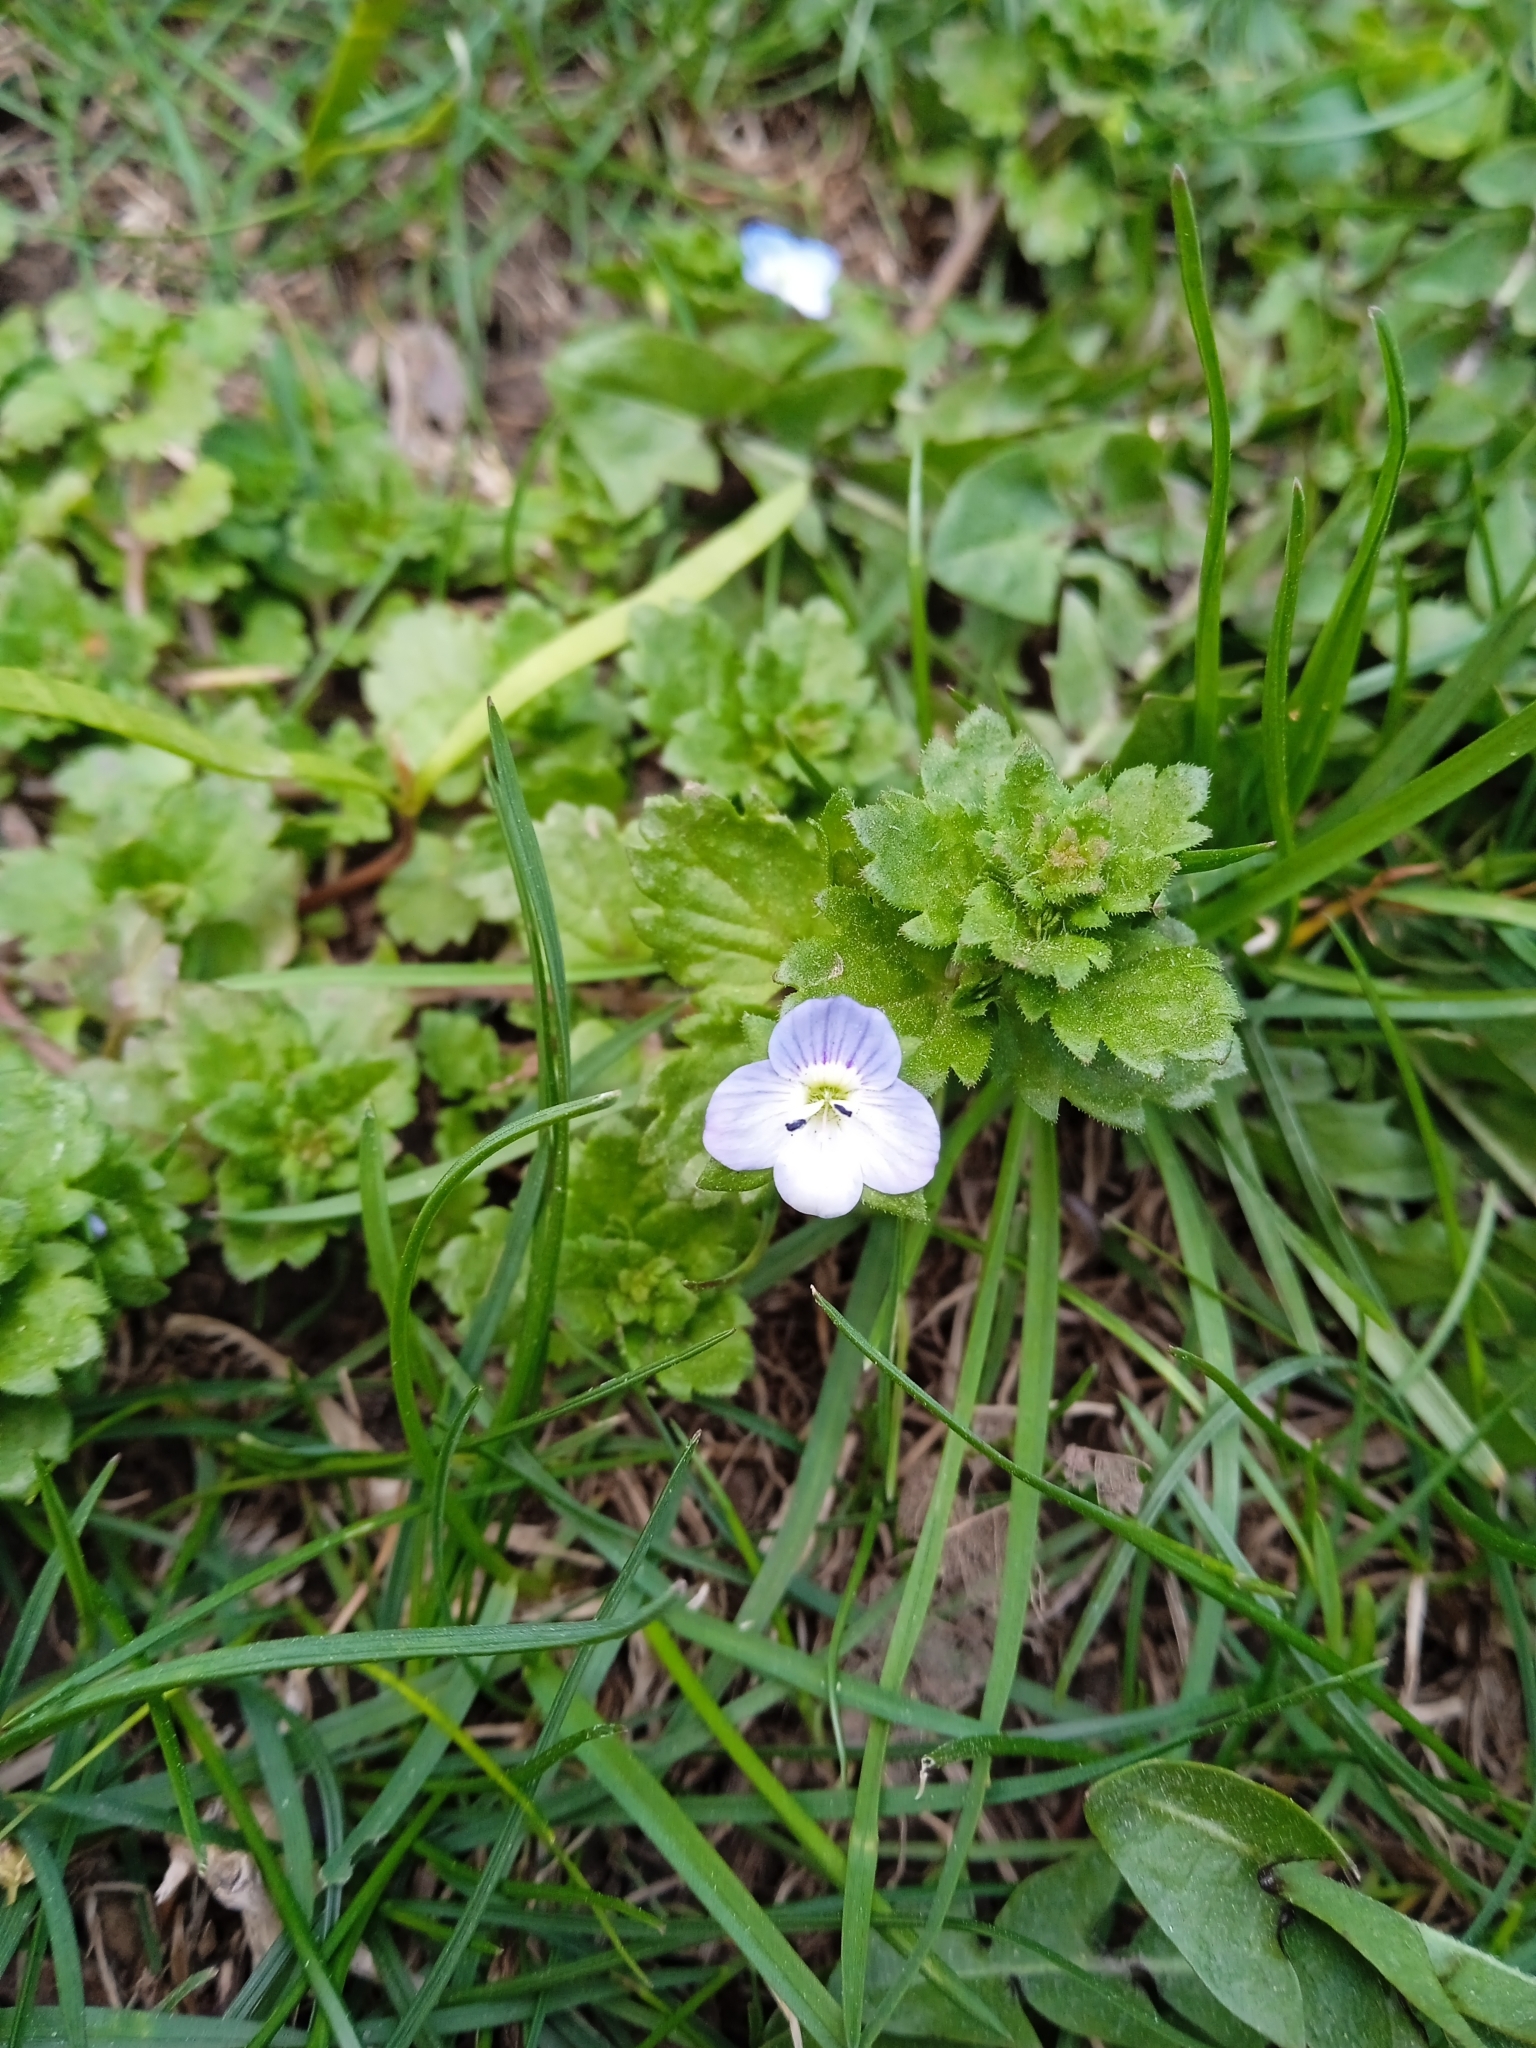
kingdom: Plantae
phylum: Tracheophyta
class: Magnoliopsida
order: Lamiales
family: Plantaginaceae
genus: Veronica
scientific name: Veronica persica
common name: Common field-speedwell
